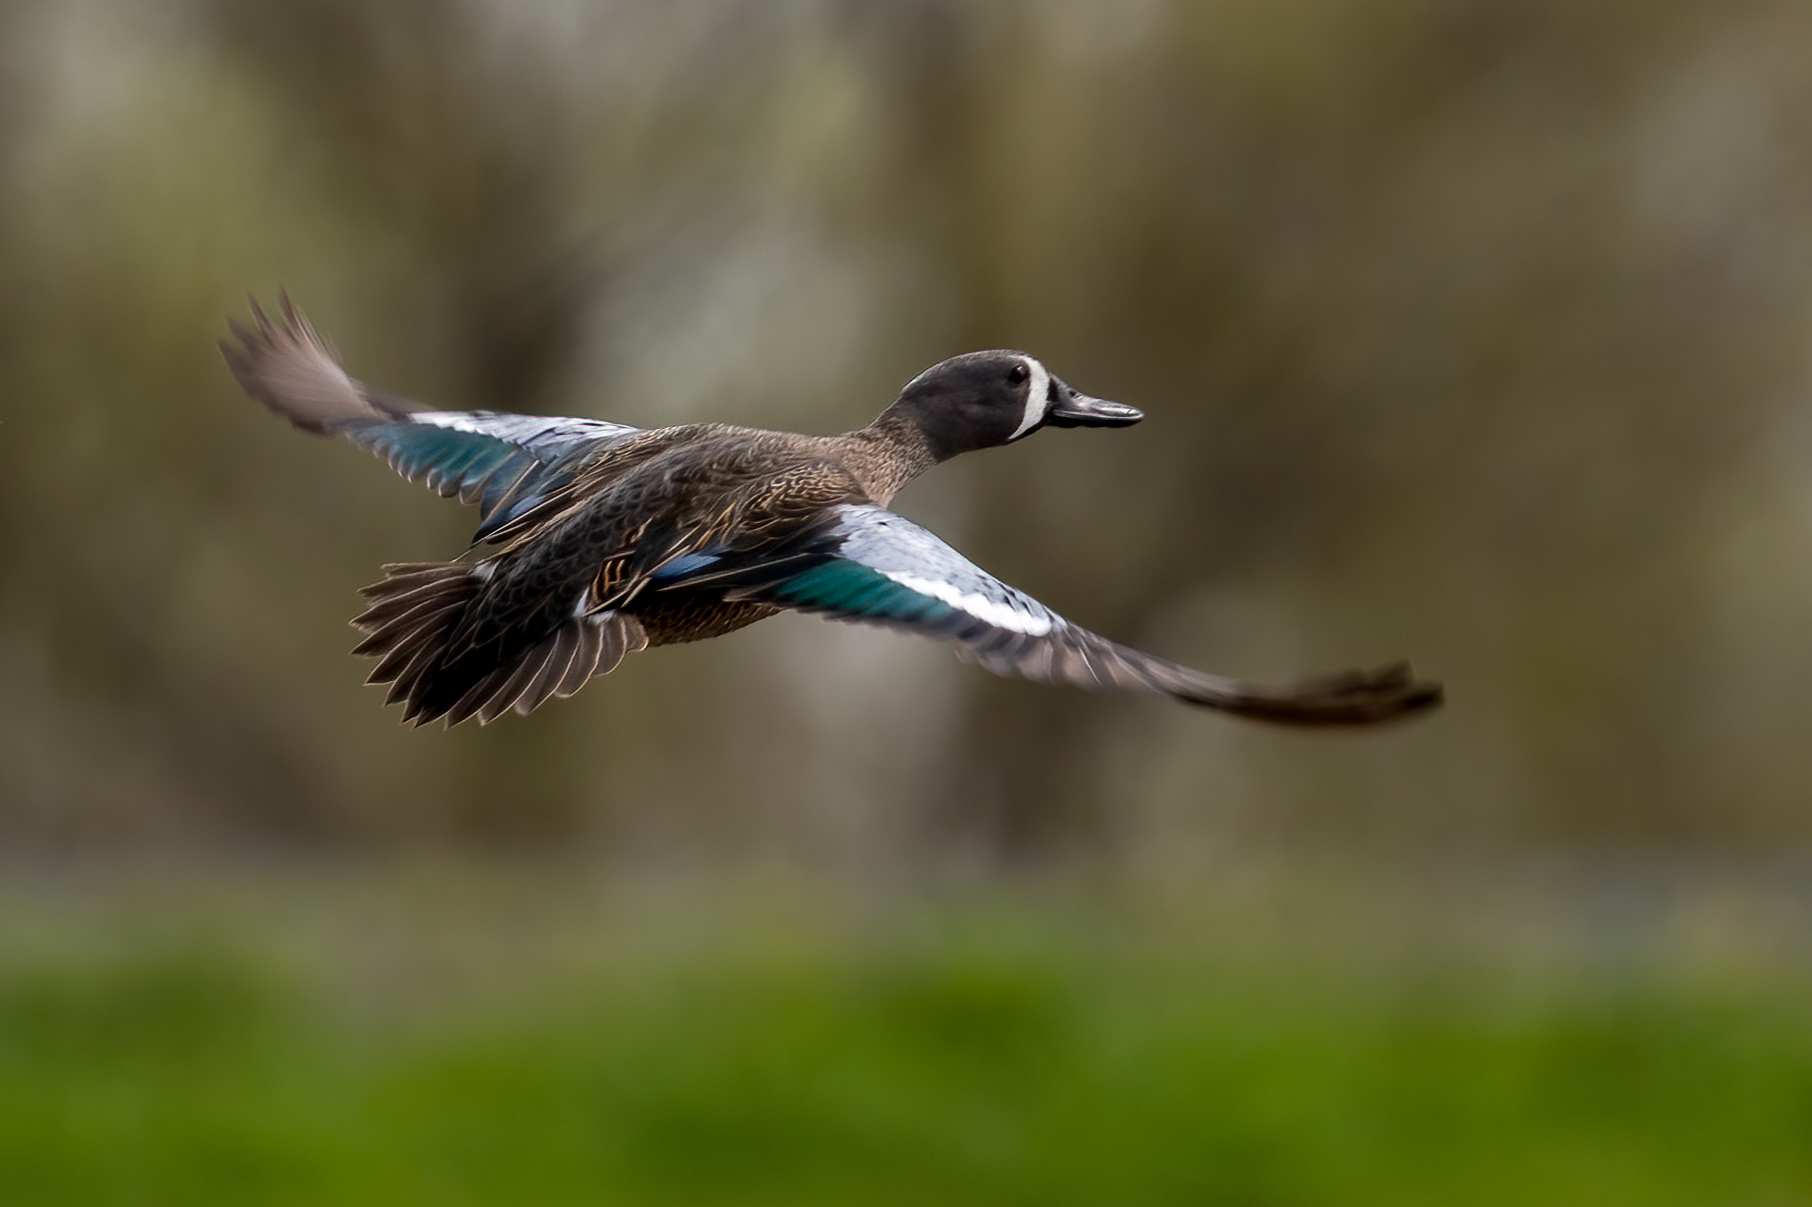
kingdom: Animalia
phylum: Chordata
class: Aves
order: Anseriformes
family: Anatidae
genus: Spatula
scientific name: Spatula discors
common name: Blue-winged teal
